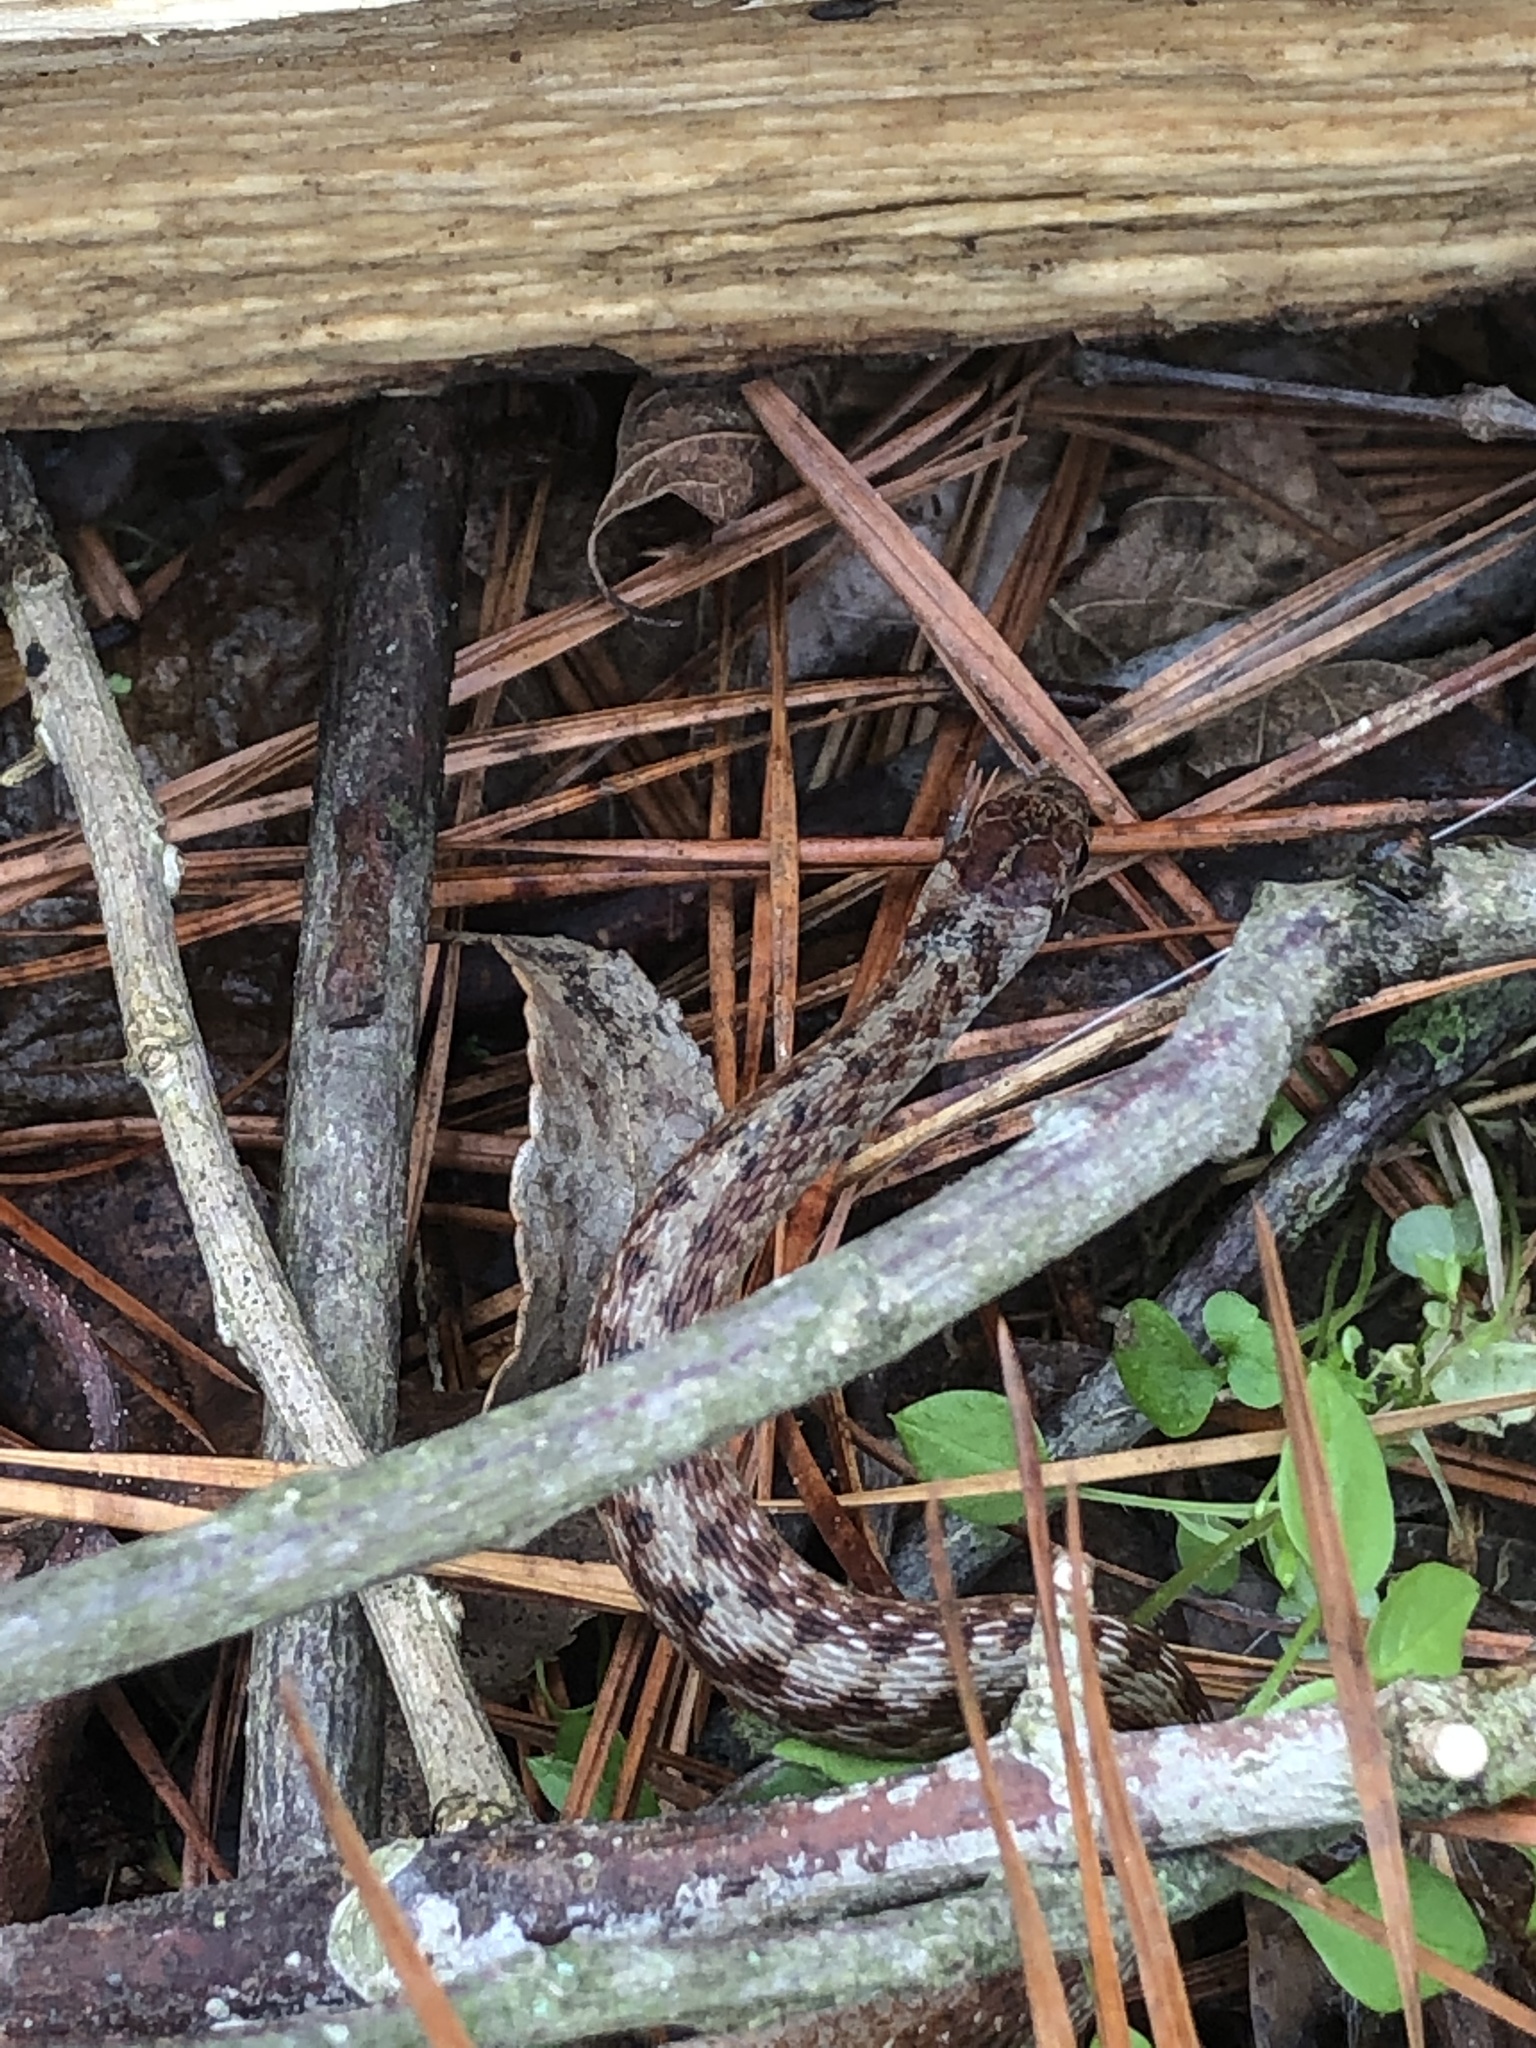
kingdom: Animalia
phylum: Chordata
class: Squamata
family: Colubridae
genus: Storeria
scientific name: Storeria dekayi
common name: (dekay’s) brown snake
